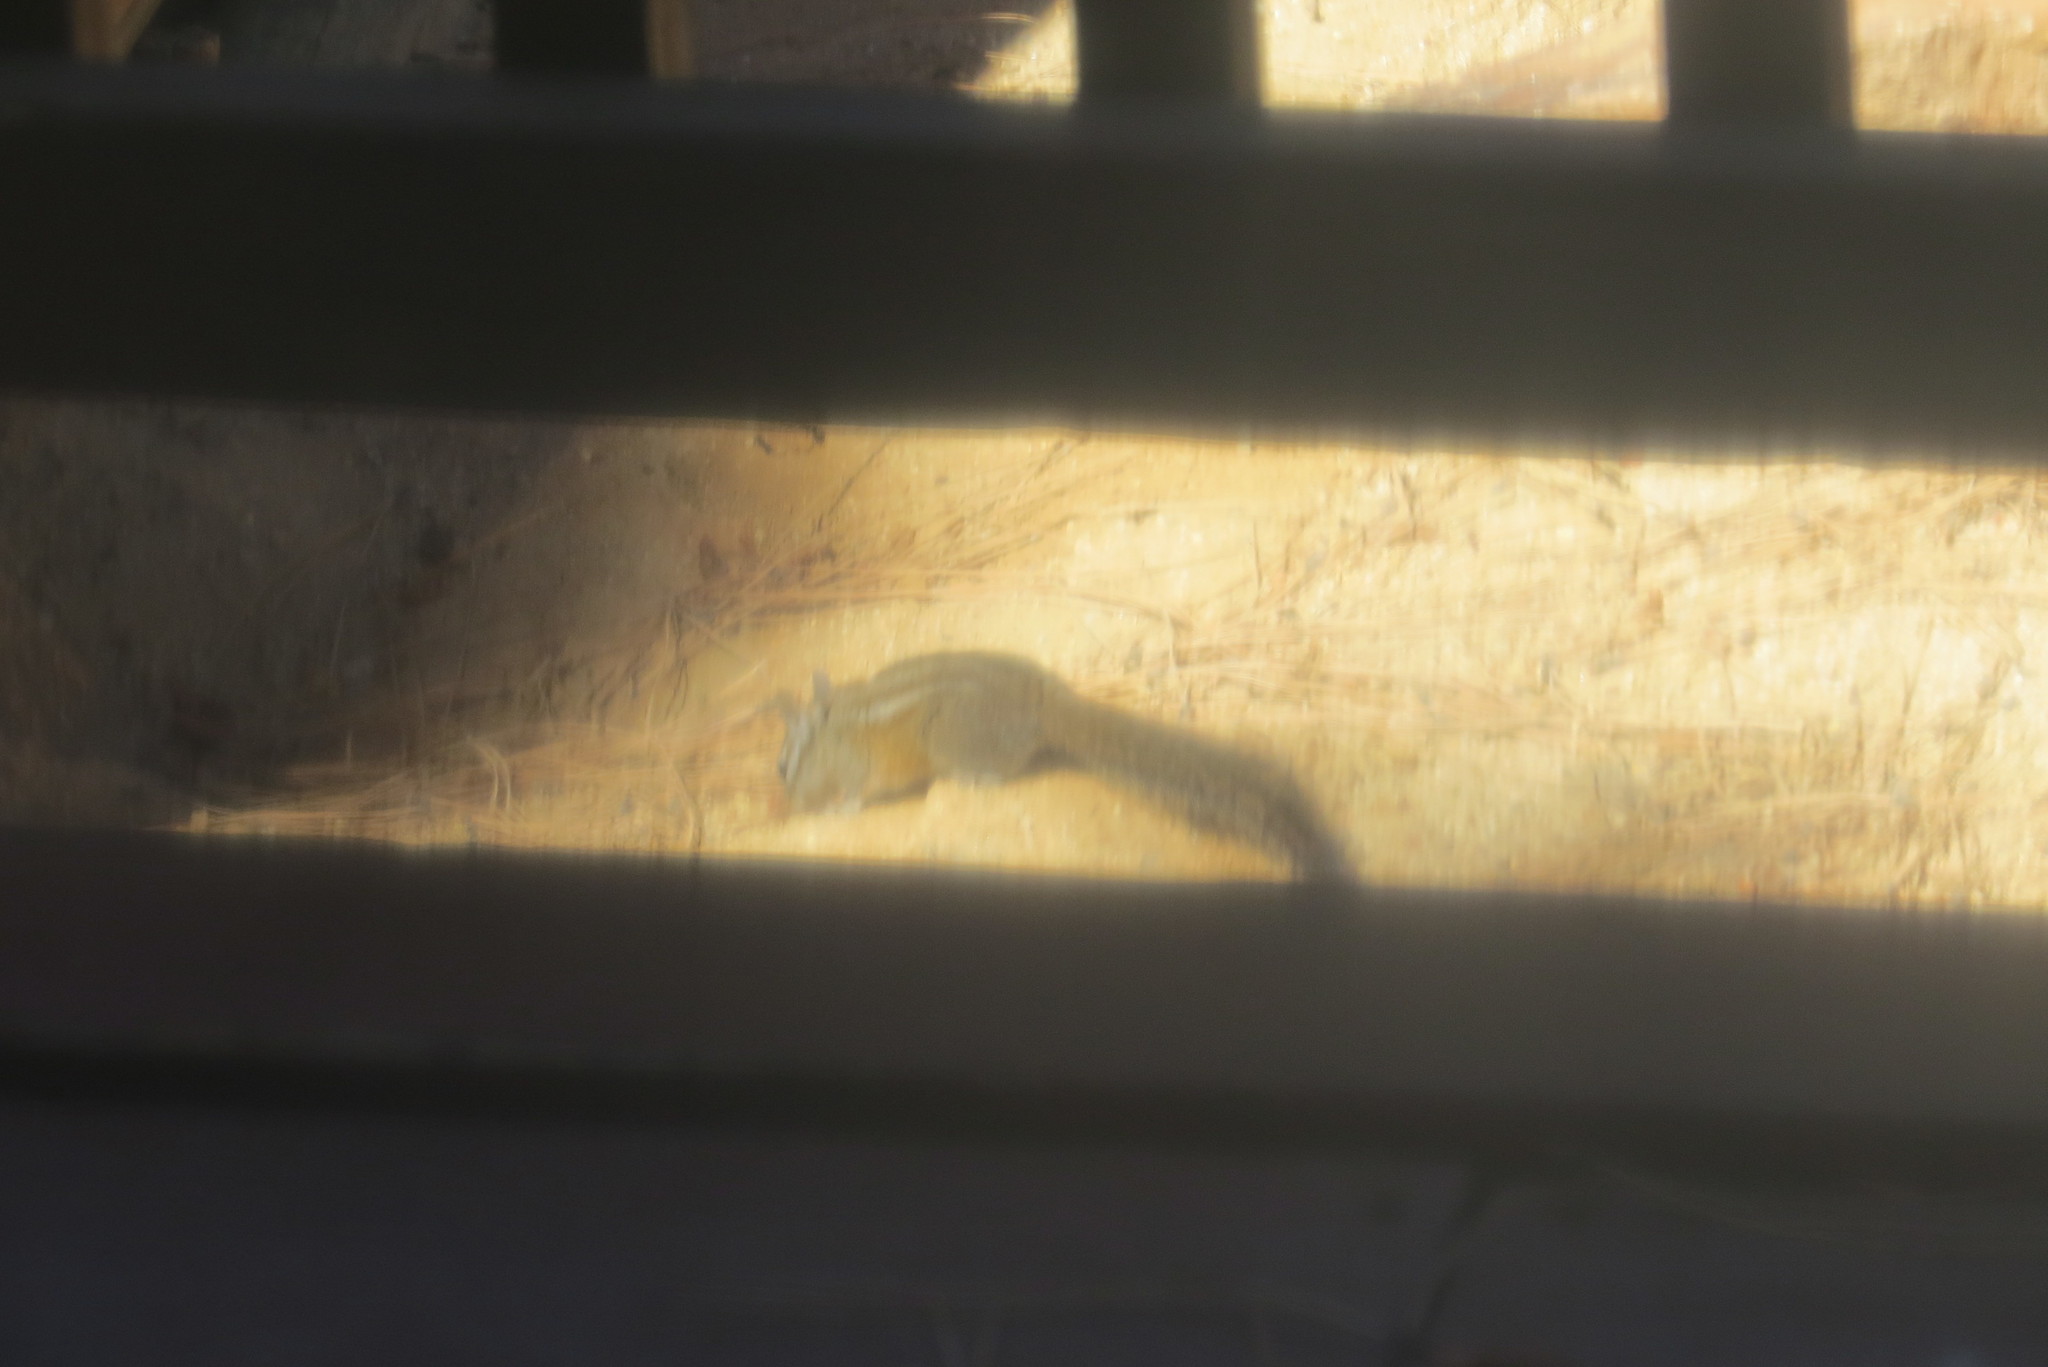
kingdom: Animalia
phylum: Chordata
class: Mammalia
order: Rodentia
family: Sciuridae
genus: Tamias
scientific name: Tamias merriami
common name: Merriam's chipmunk
